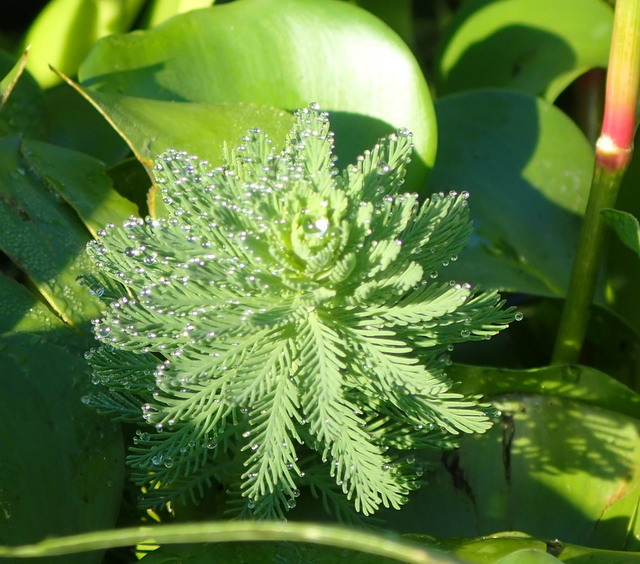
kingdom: Plantae
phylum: Tracheophyta
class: Magnoliopsida
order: Saxifragales
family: Haloragaceae
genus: Myriophyllum
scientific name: Myriophyllum aquaticum
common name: Parrot's feather
